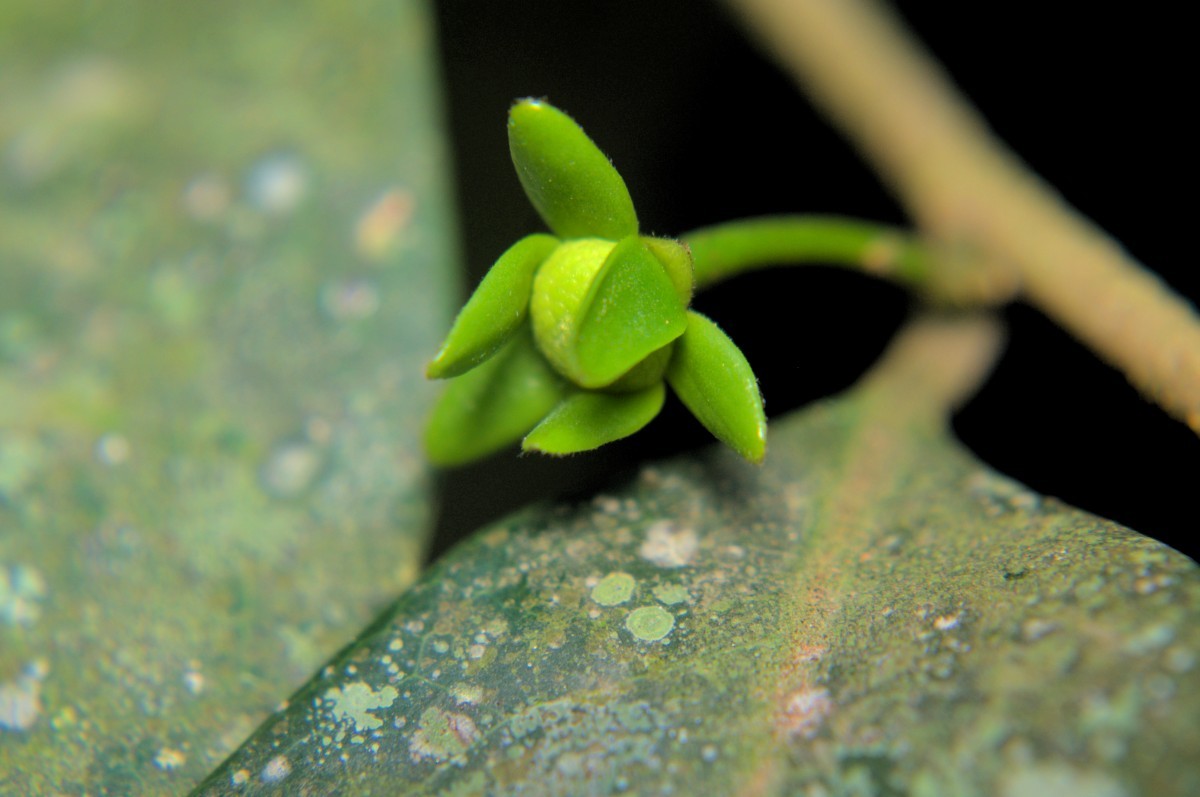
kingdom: Plantae
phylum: Tracheophyta
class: Magnoliopsida
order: Magnoliales
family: Annonaceae
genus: Hubera
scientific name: Hubera korinti
